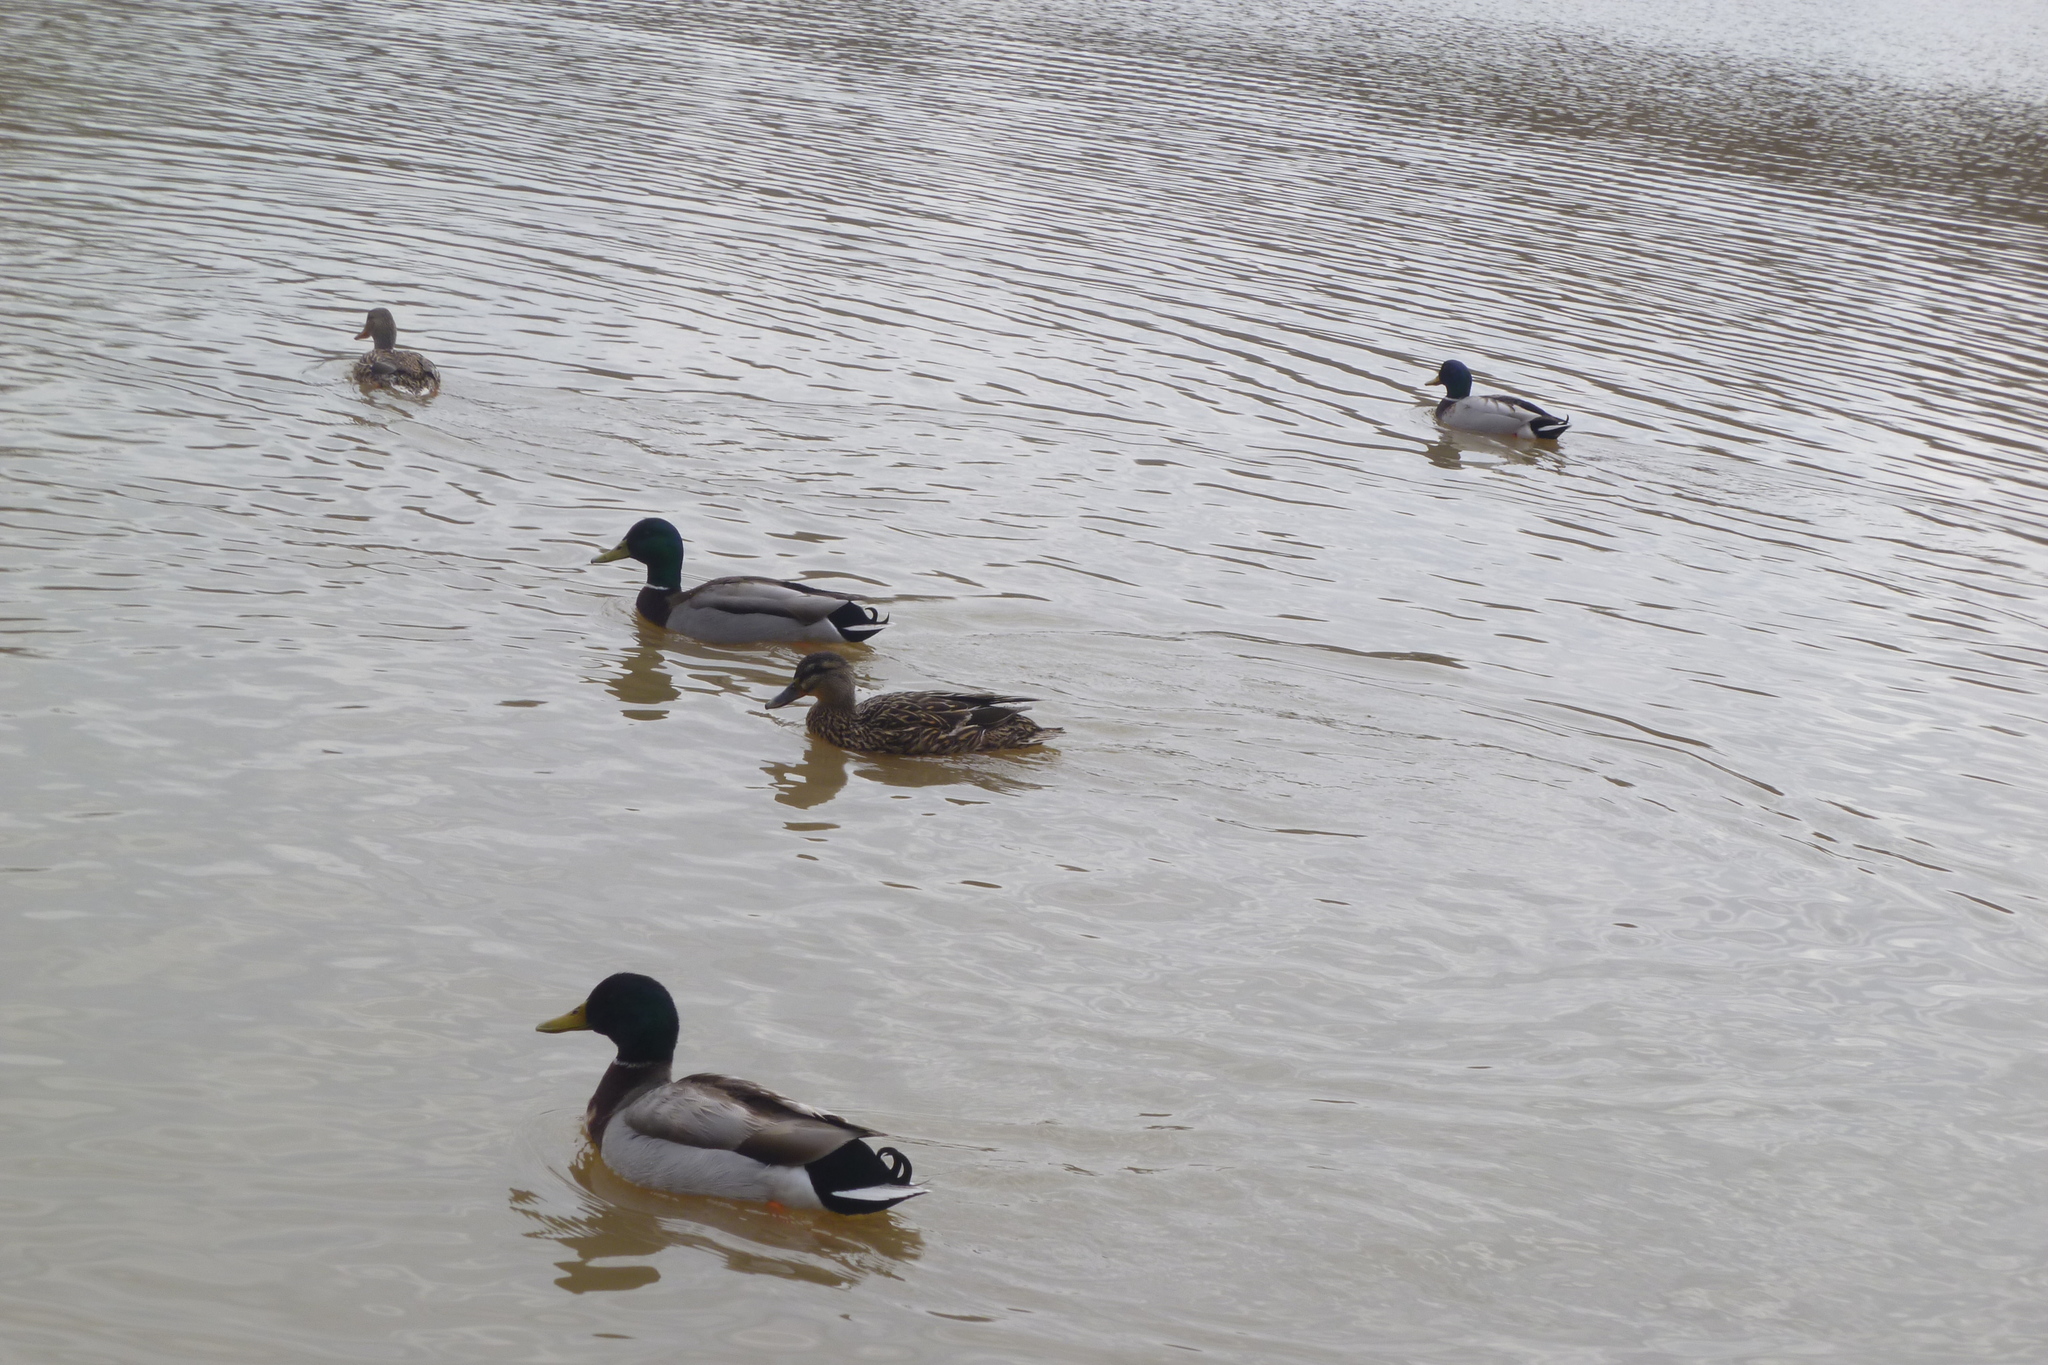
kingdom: Animalia
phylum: Chordata
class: Aves
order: Anseriformes
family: Anatidae
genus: Anas
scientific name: Anas platyrhynchos
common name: Mallard
